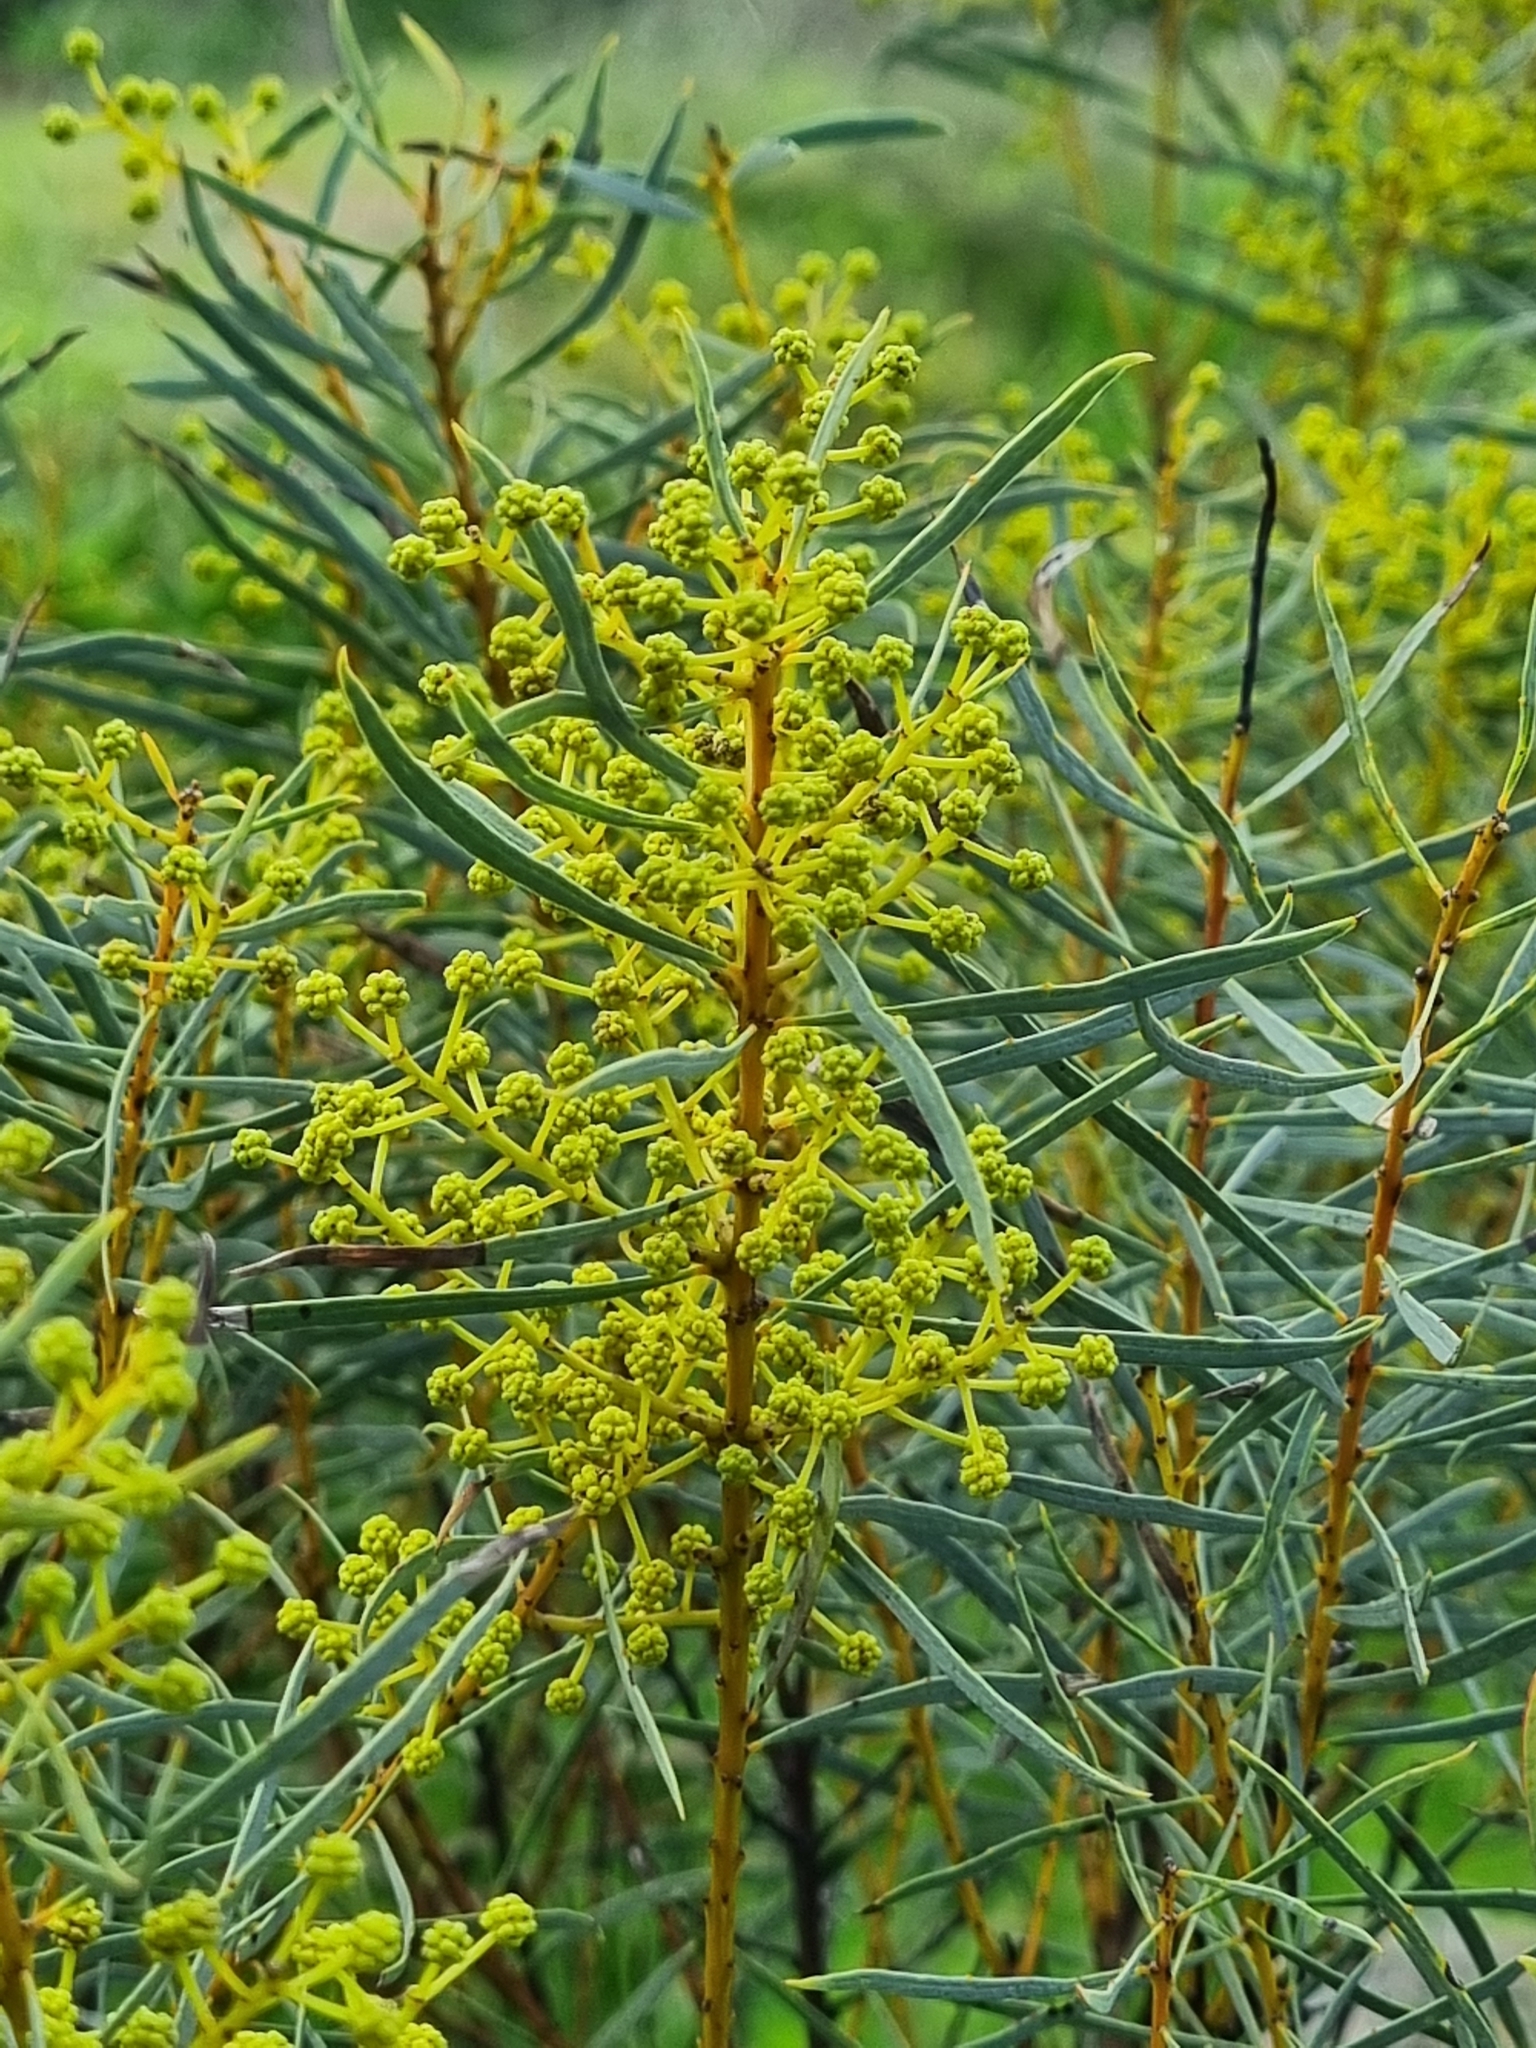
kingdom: Plantae
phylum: Tracheophyta
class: Magnoliopsida
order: Fabales
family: Fabaceae
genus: Acacia
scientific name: Acacia decora
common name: Showy wattle
